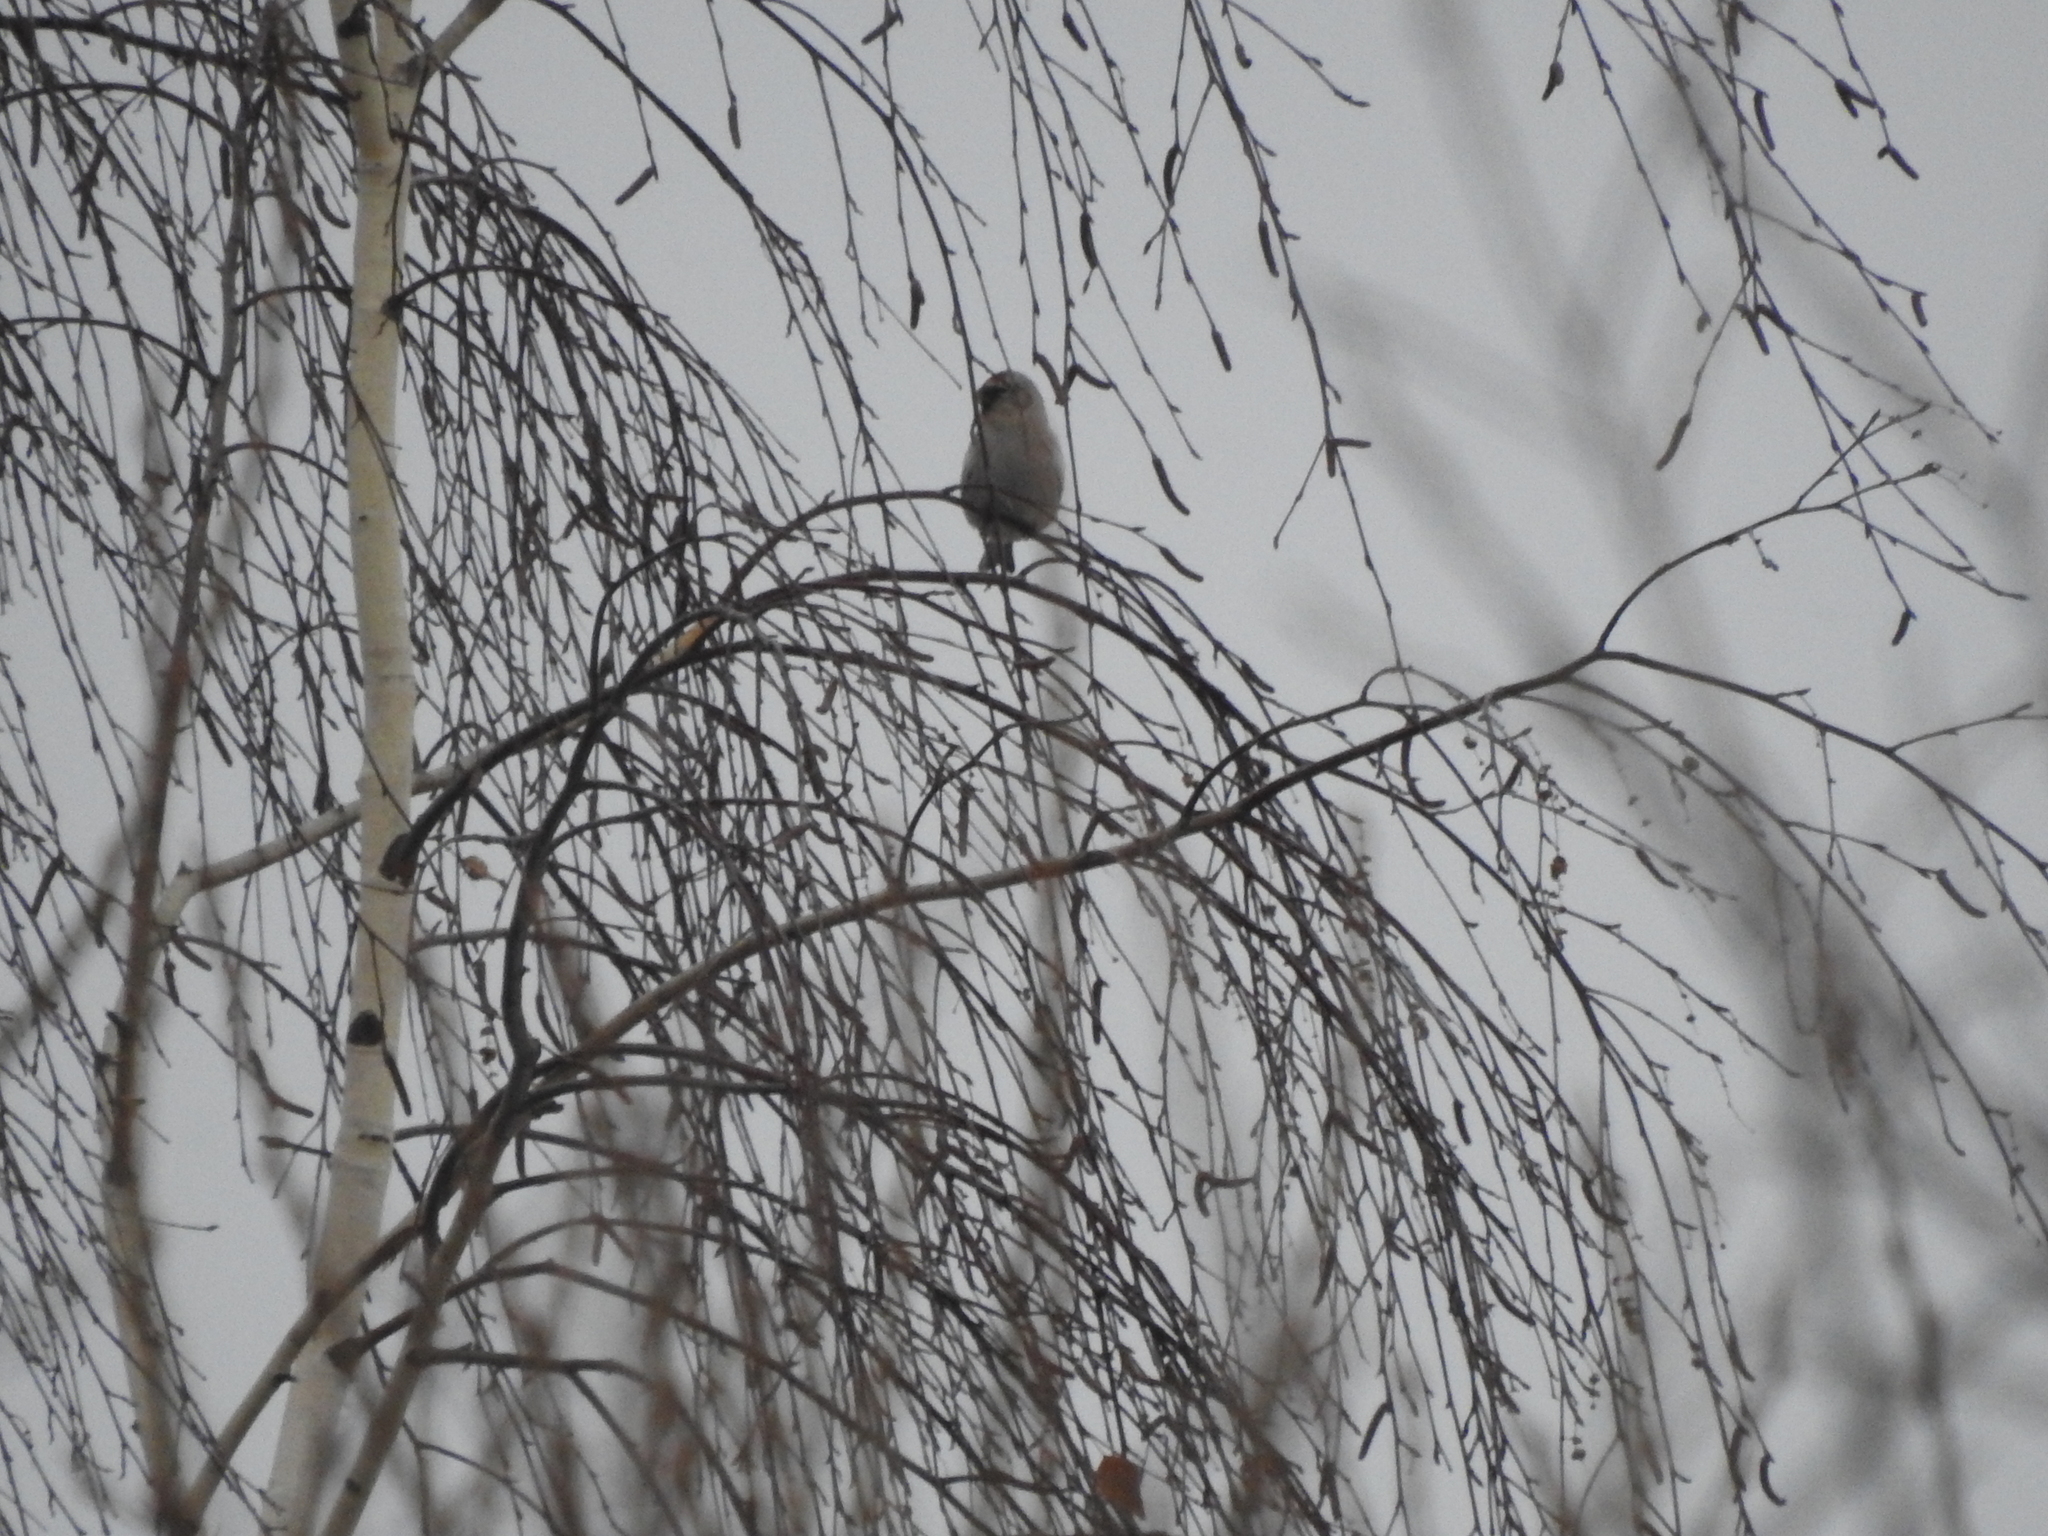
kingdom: Animalia
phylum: Chordata
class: Aves
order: Passeriformes
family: Fringillidae
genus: Acanthis
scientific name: Acanthis flammea
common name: Common redpoll
